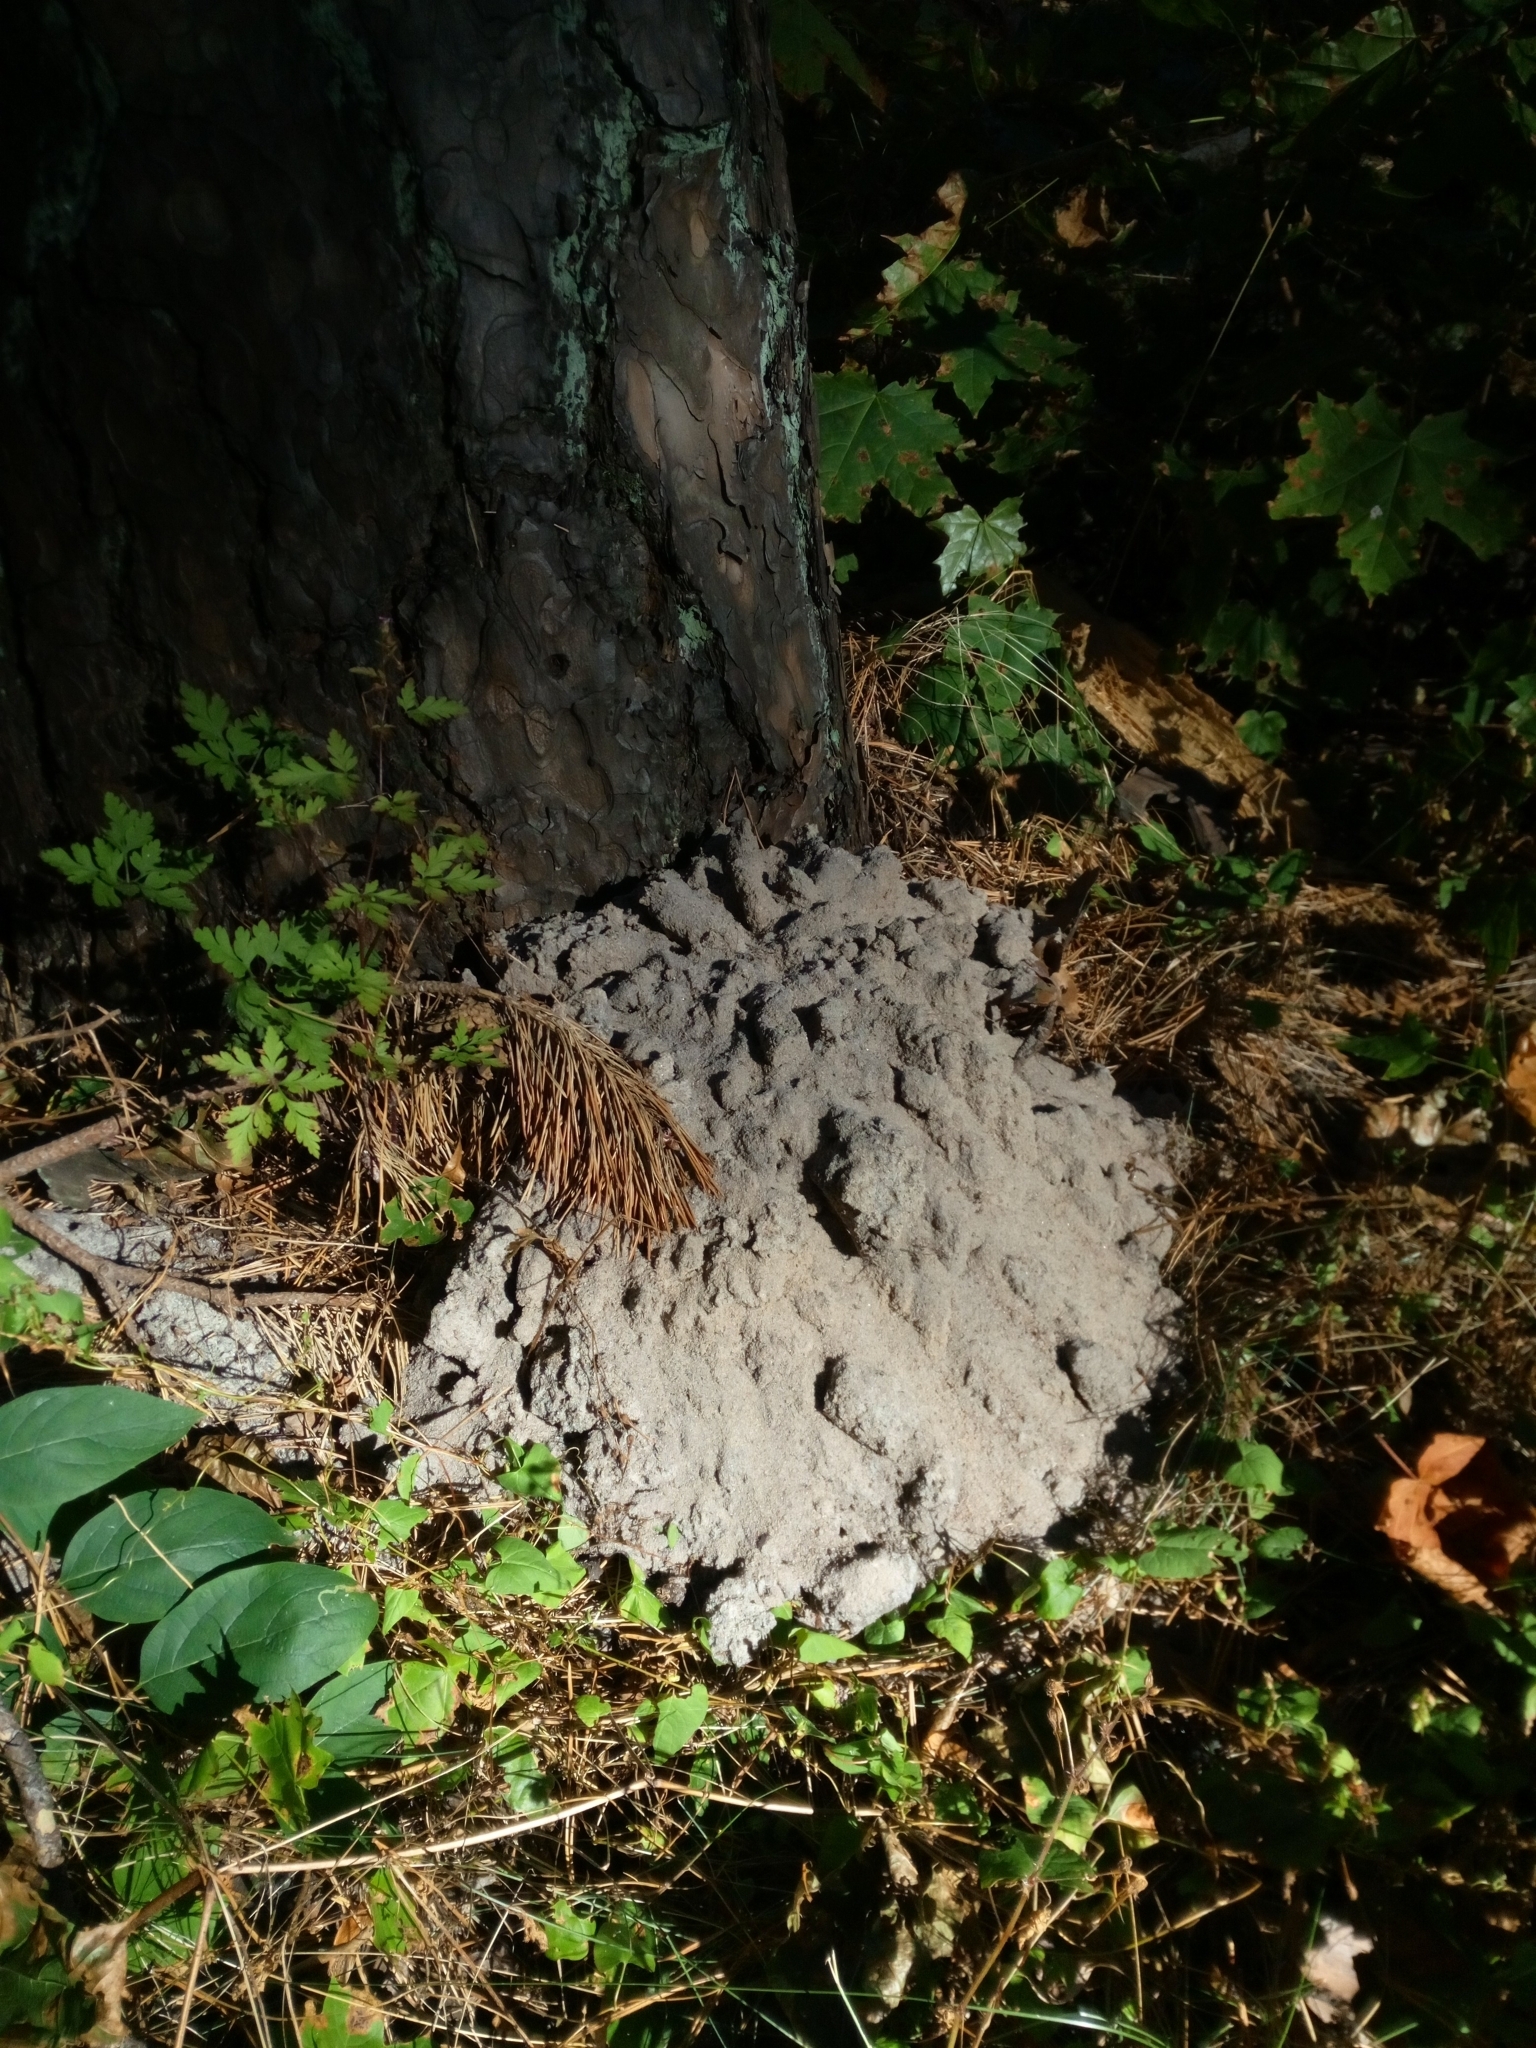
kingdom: Animalia
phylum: Chordata
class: Mammalia
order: Soricomorpha
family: Talpidae
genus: Talpa
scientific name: Talpa europaea
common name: European mole
